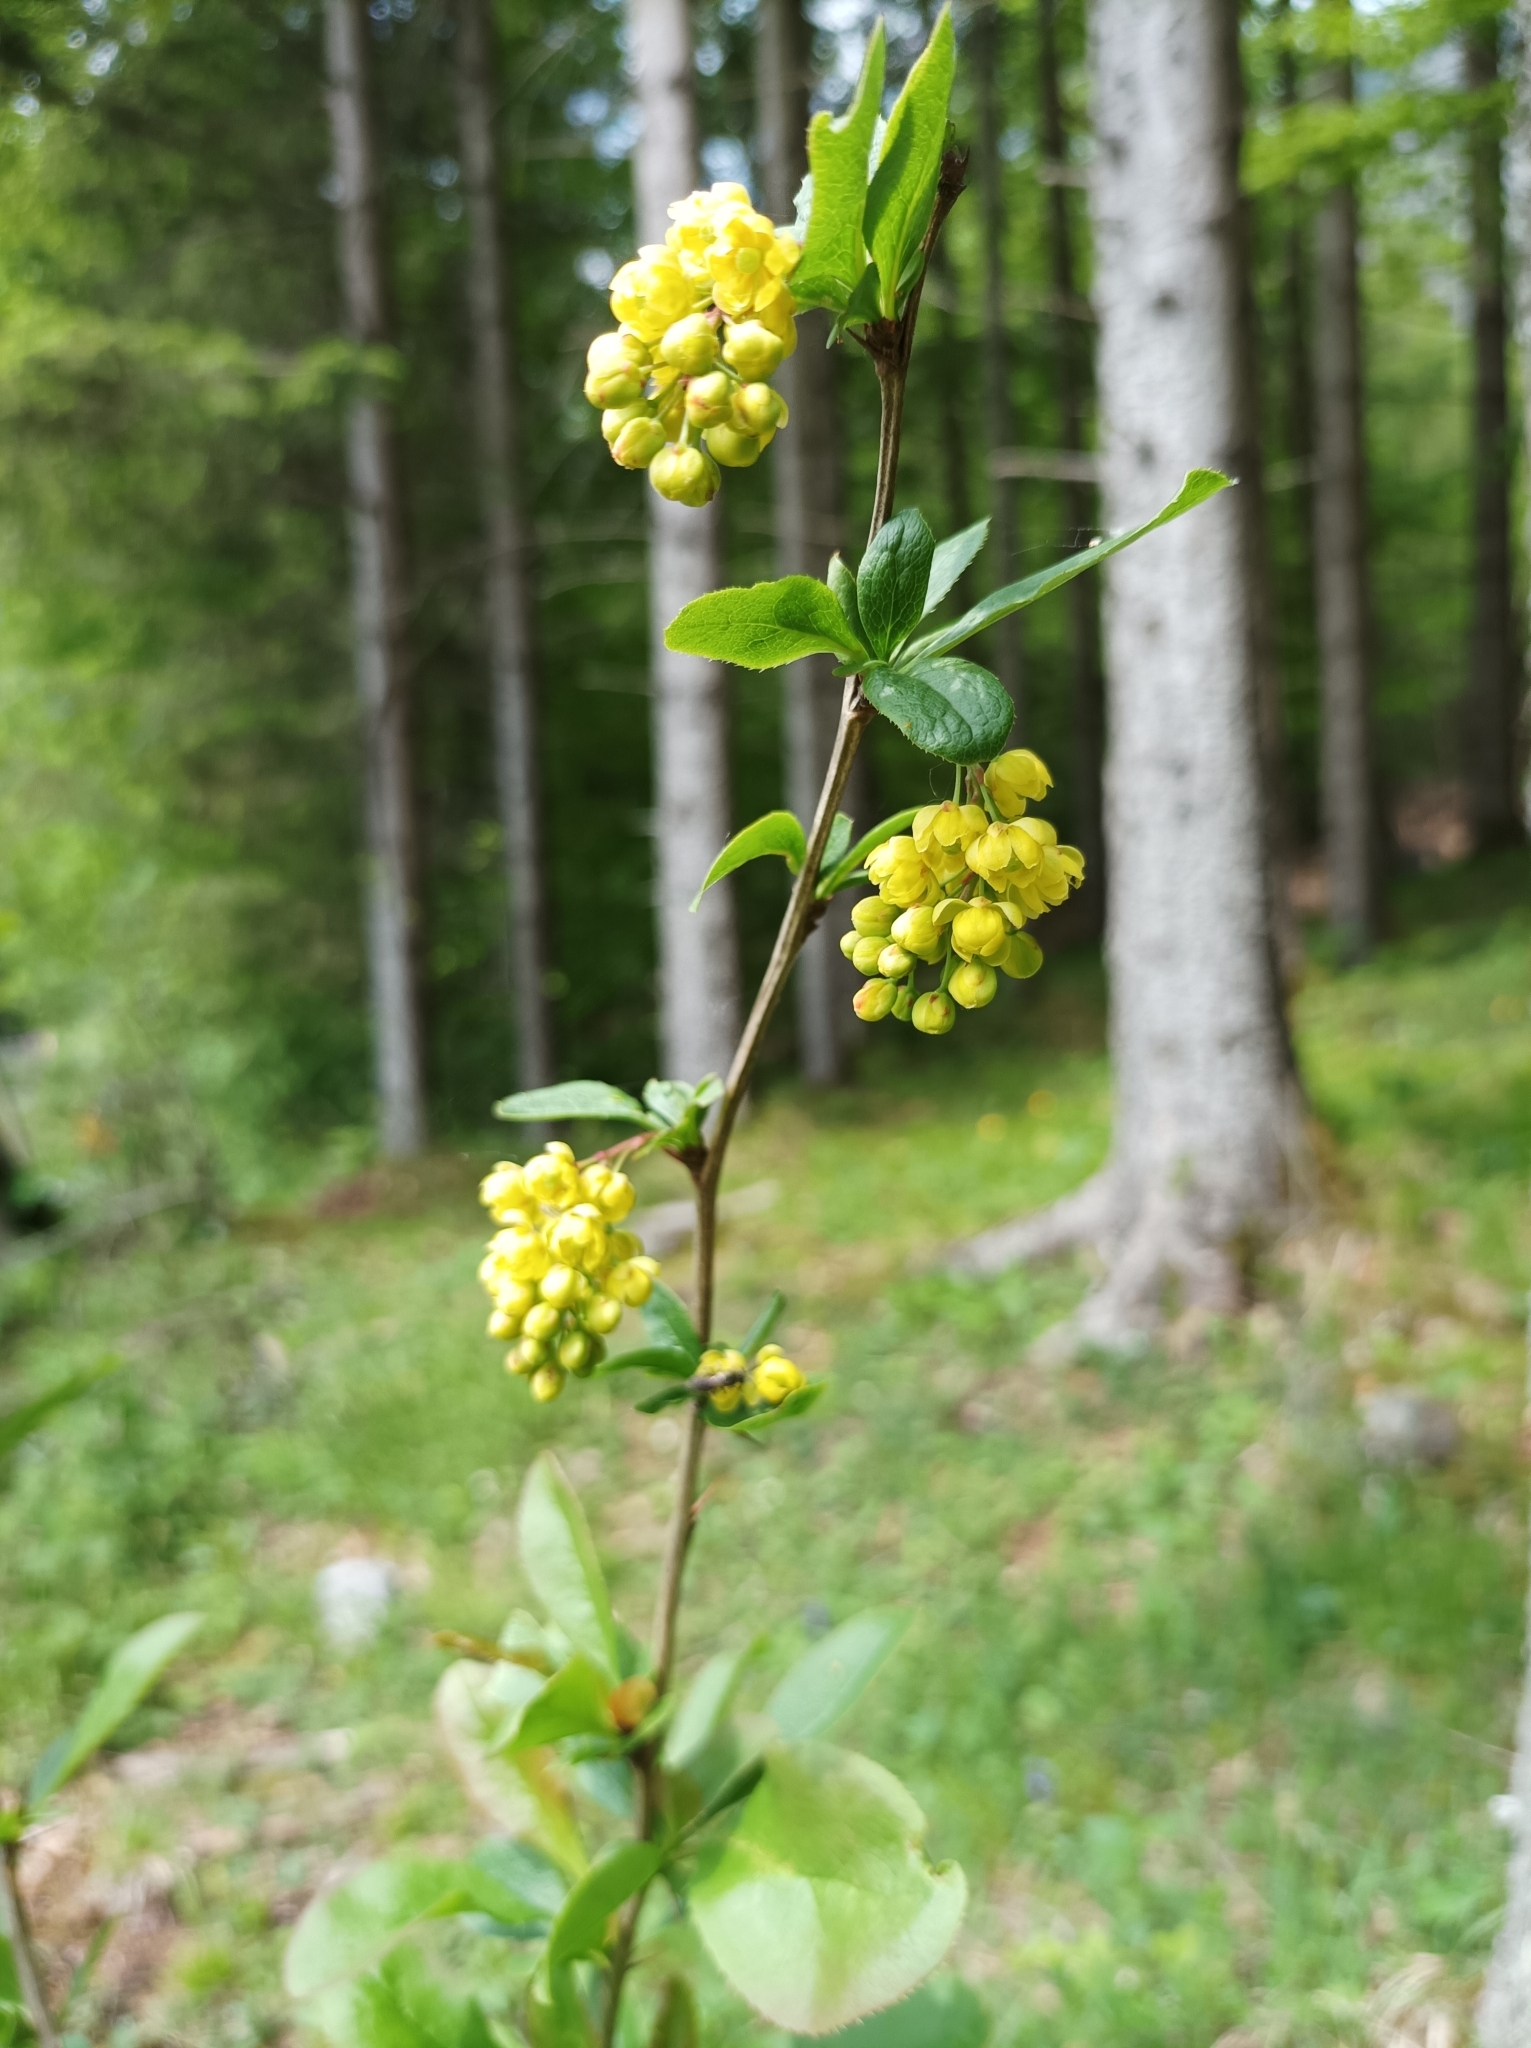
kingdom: Plantae
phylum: Tracheophyta
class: Magnoliopsida
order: Ranunculales
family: Berberidaceae
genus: Berberis
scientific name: Berberis vulgaris
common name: Barberry
